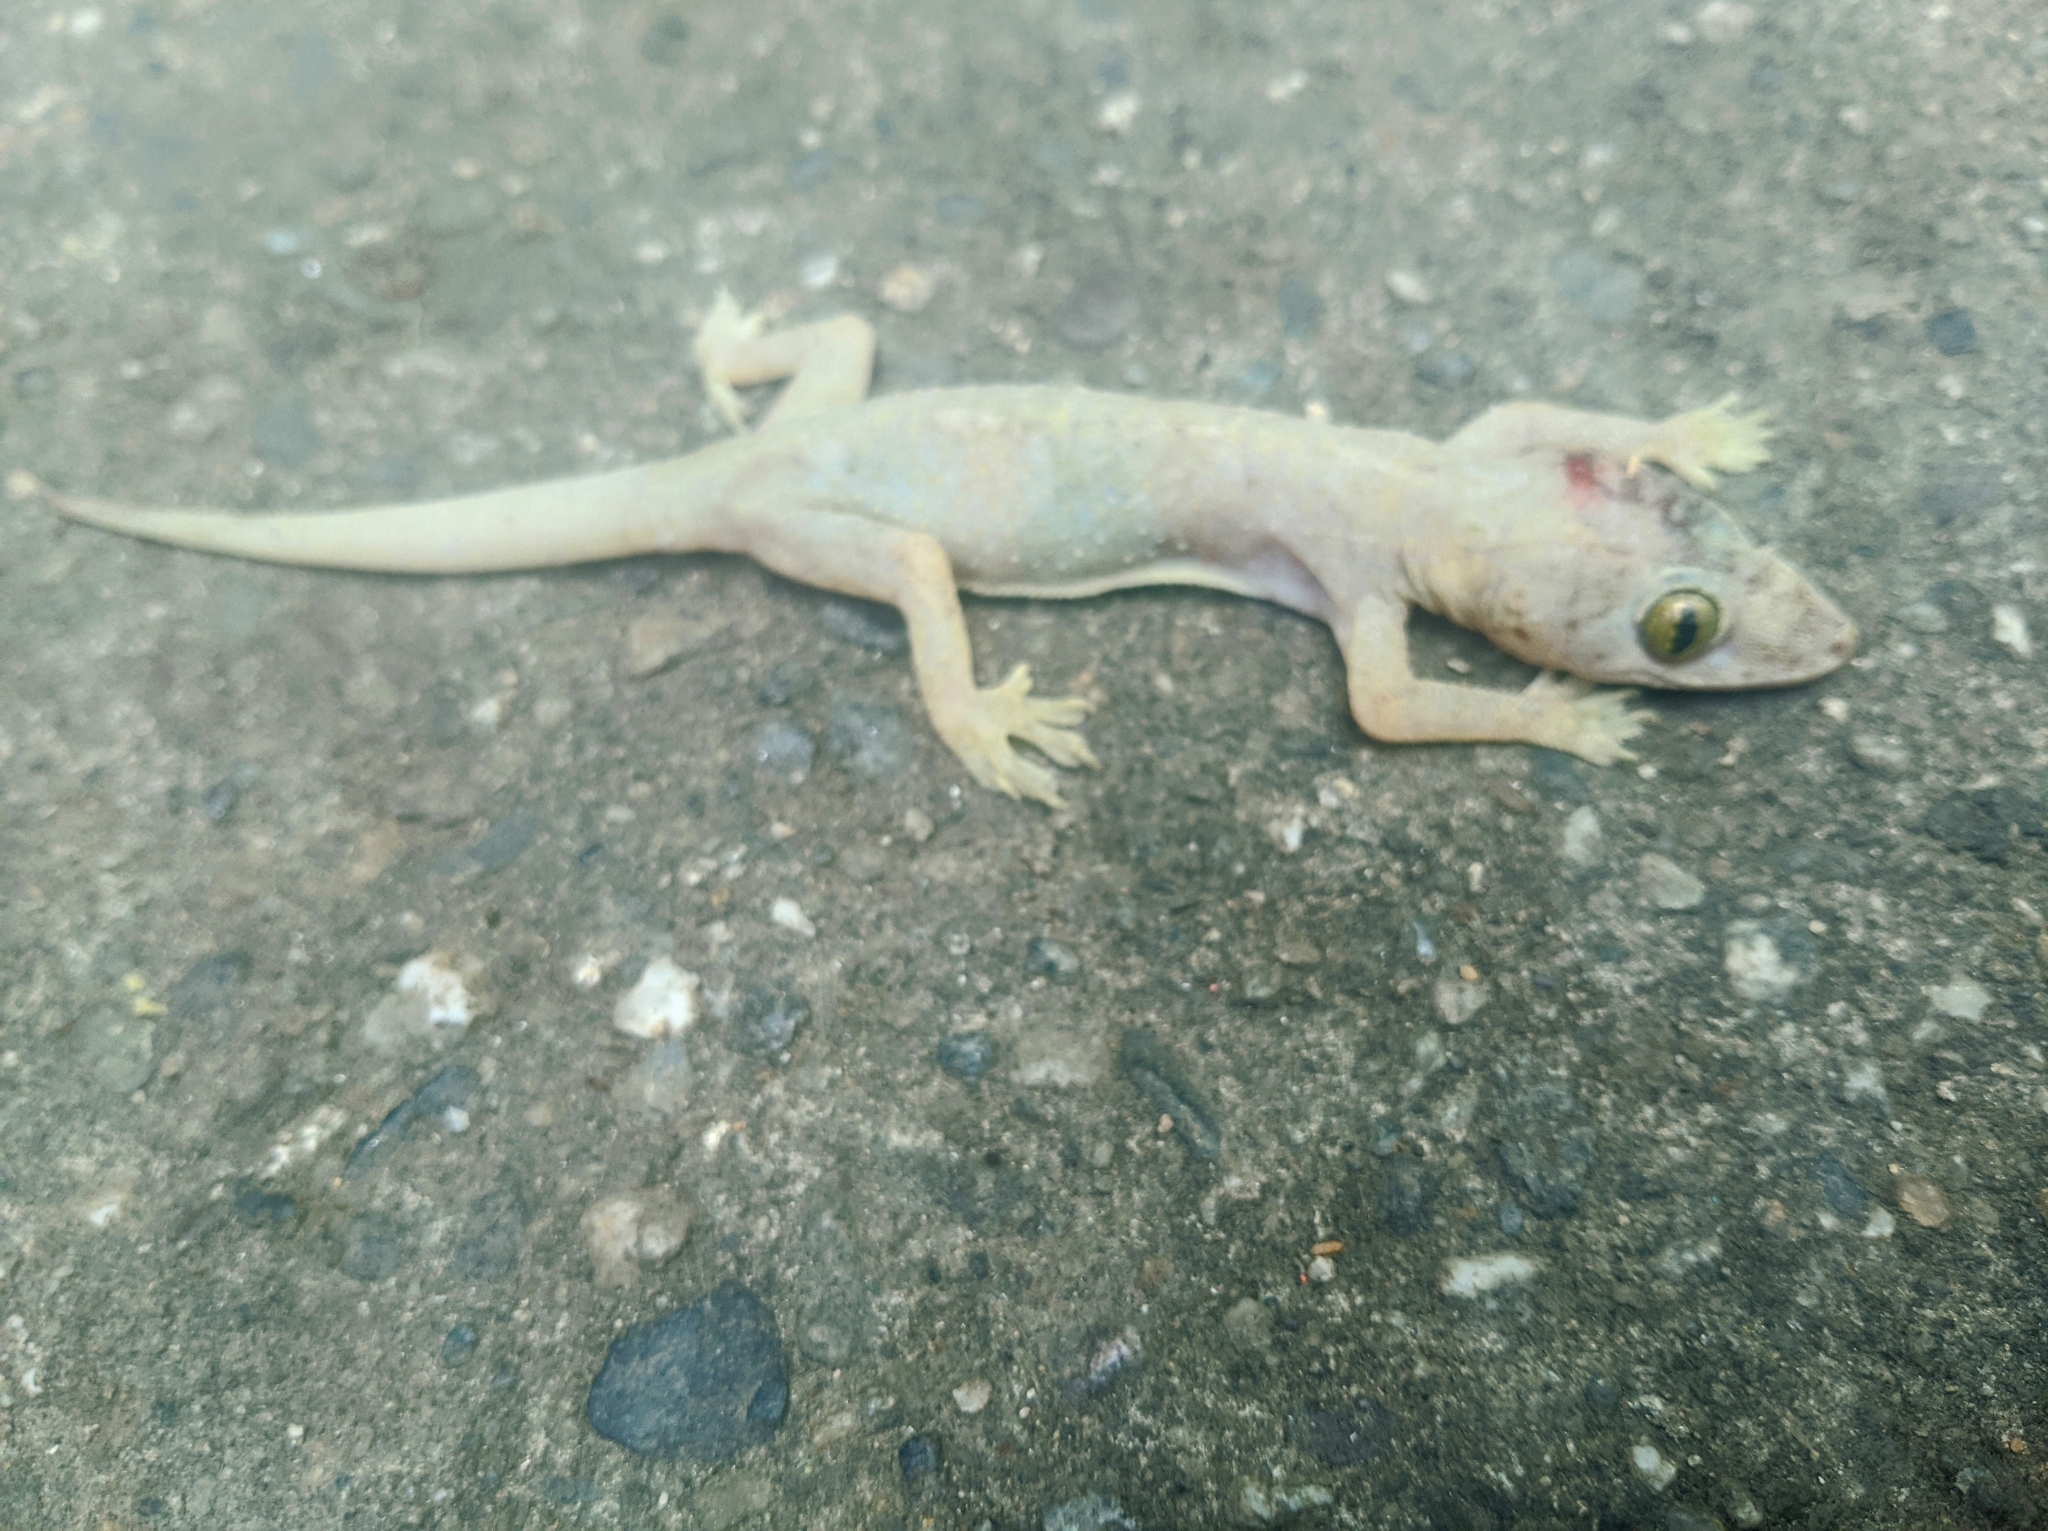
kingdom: Animalia
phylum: Chordata
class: Squamata
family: Gekkonidae
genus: Hemidactylus
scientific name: Hemidactylus mabouia
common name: House gecko
